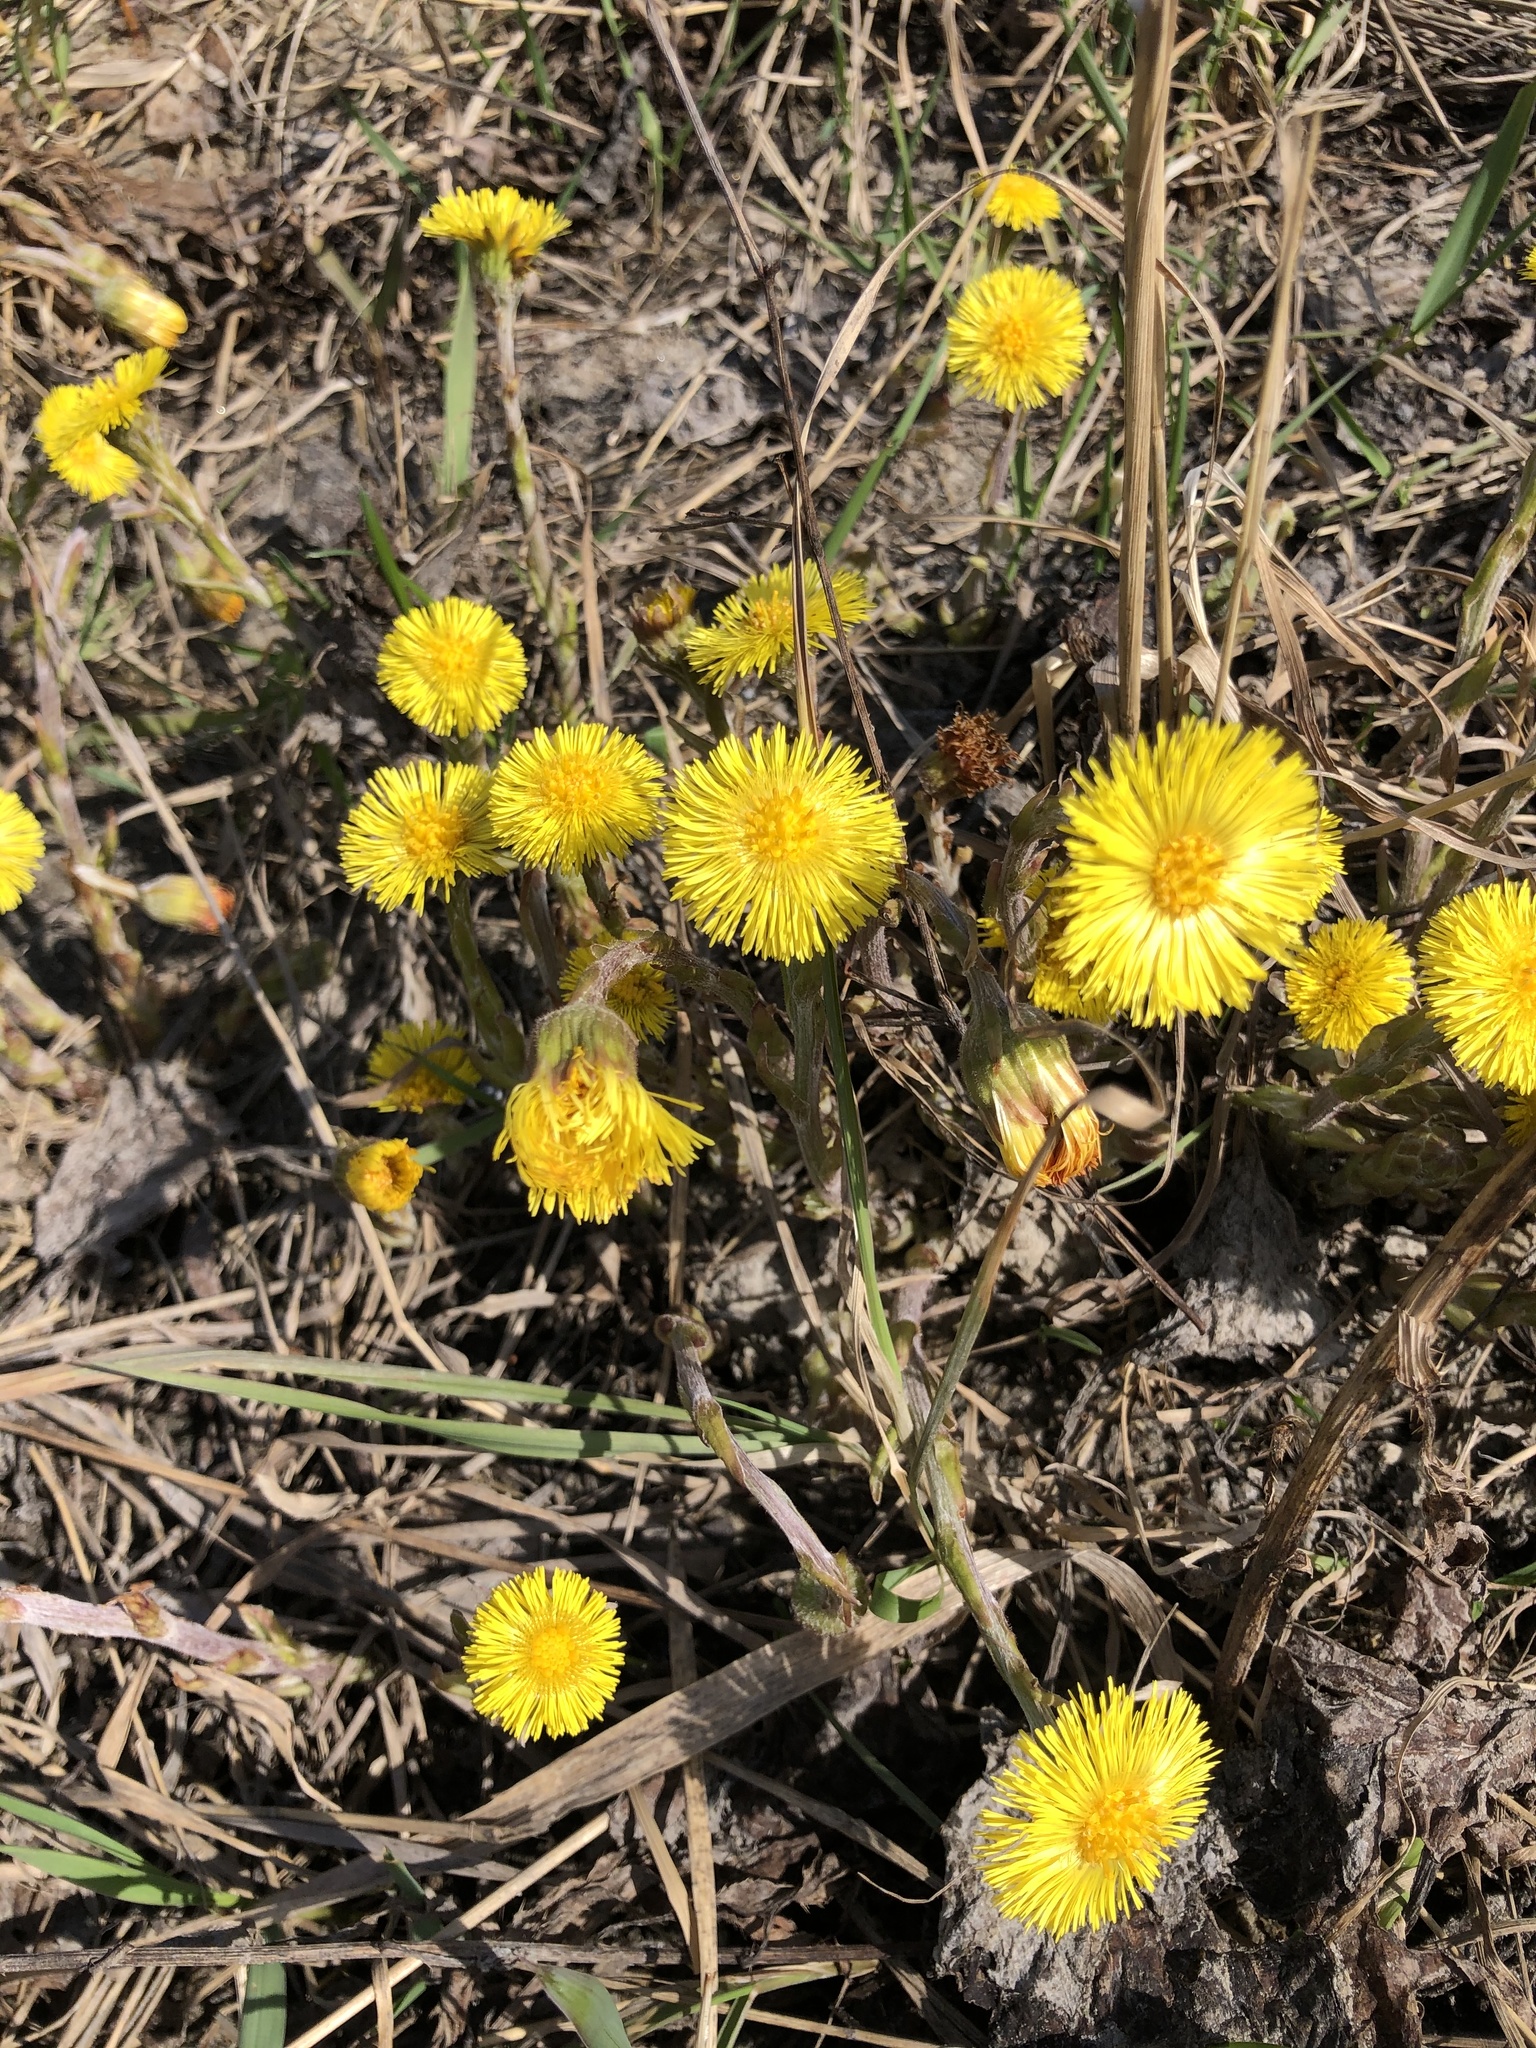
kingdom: Plantae
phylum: Tracheophyta
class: Magnoliopsida
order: Asterales
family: Asteraceae
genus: Tussilago
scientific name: Tussilago farfara
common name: Coltsfoot
